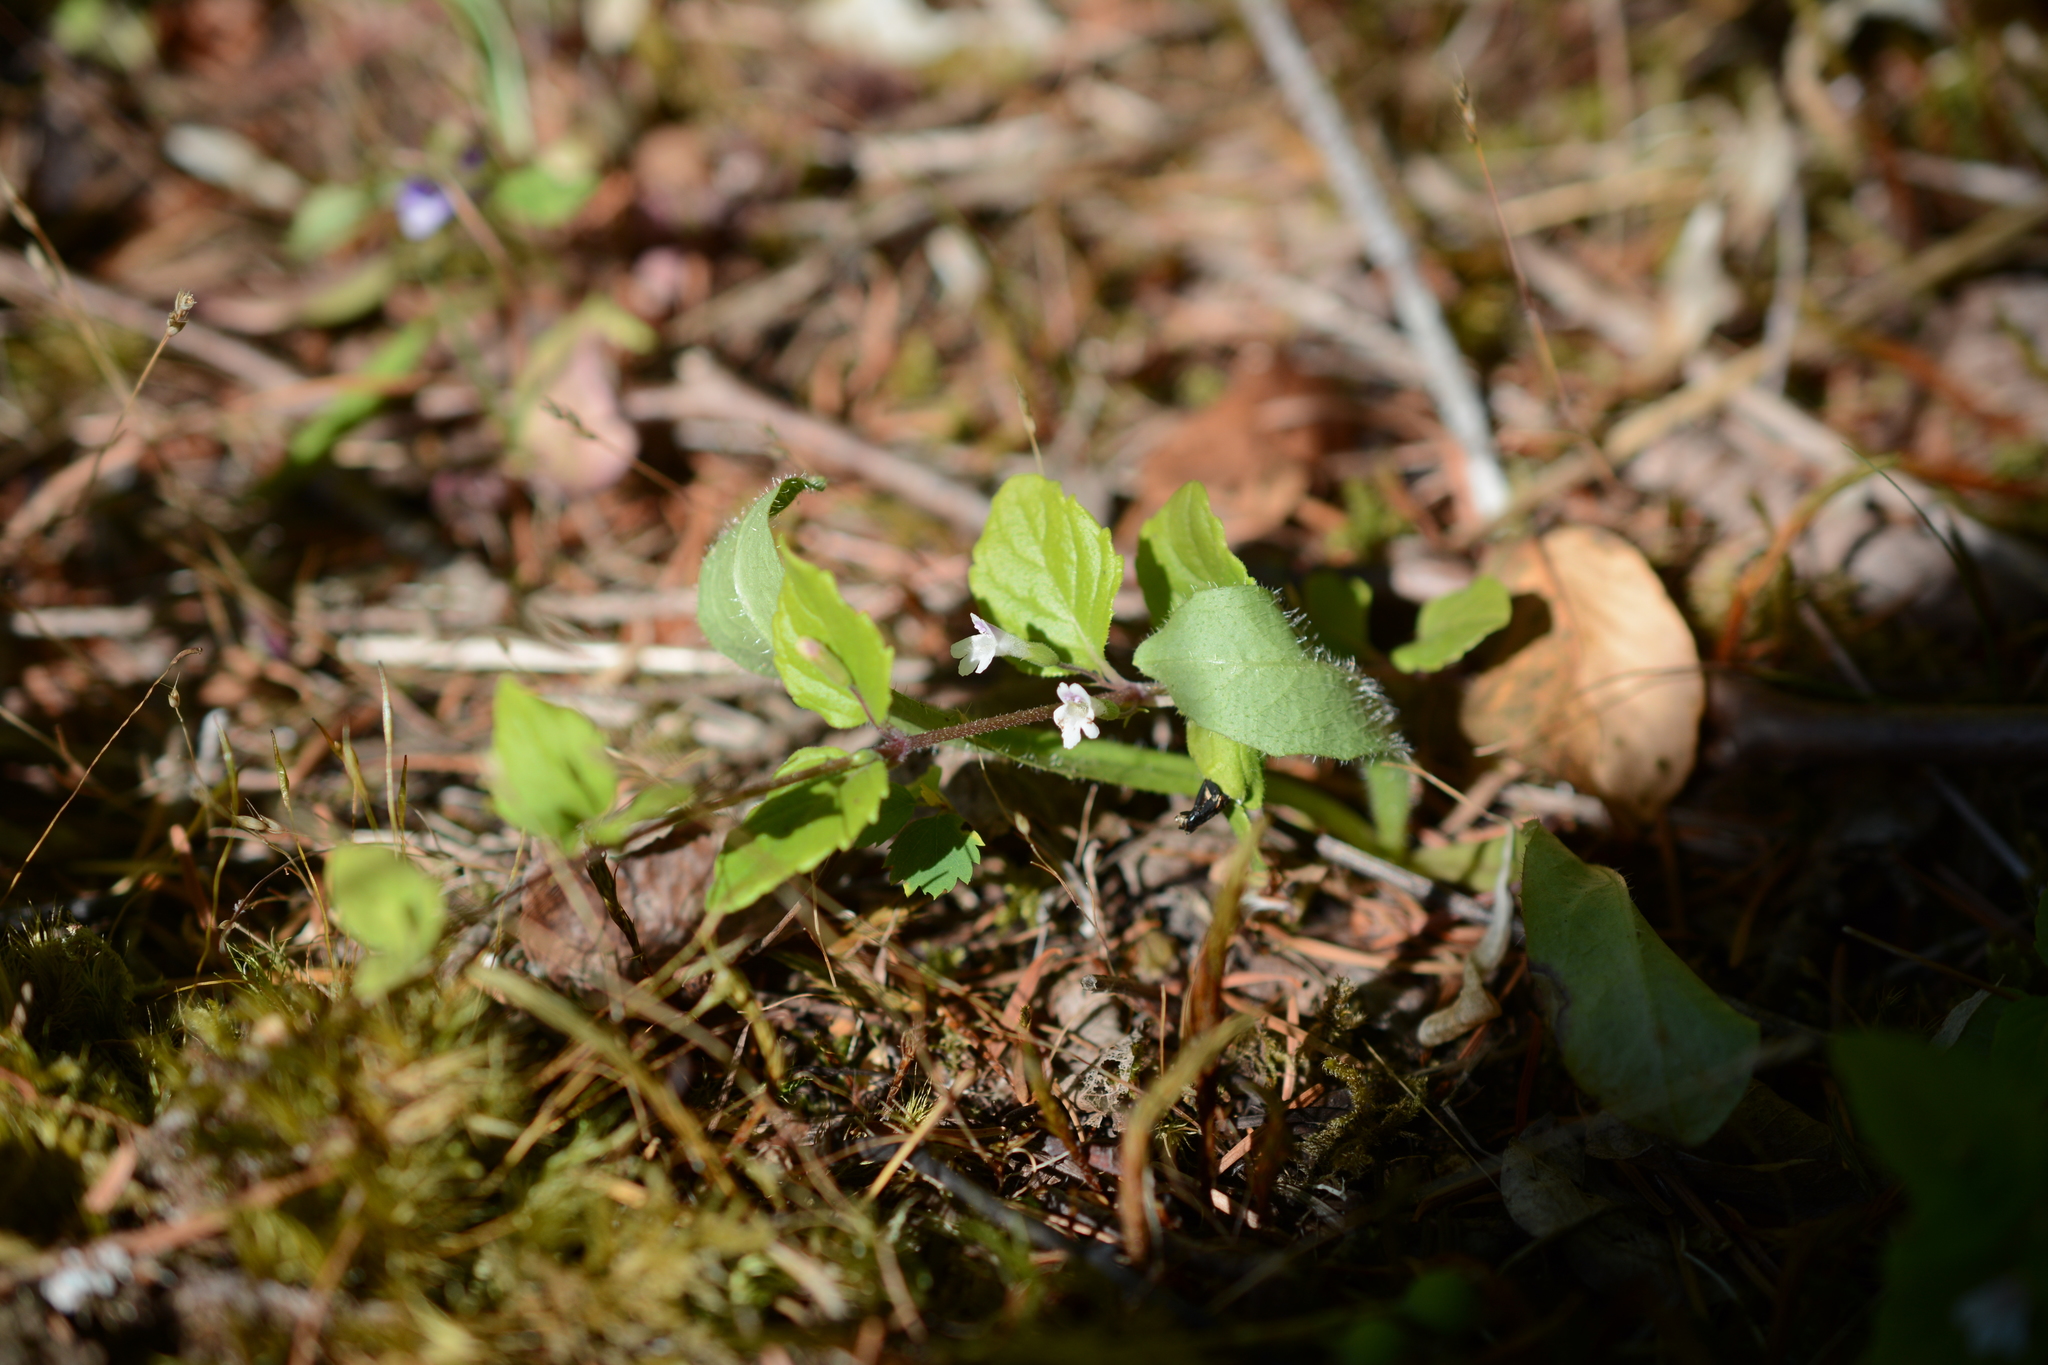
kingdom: Plantae
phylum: Tracheophyta
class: Magnoliopsida
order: Lamiales
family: Lamiaceae
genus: Micromeria
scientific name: Micromeria douglasii
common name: Yerba buena
